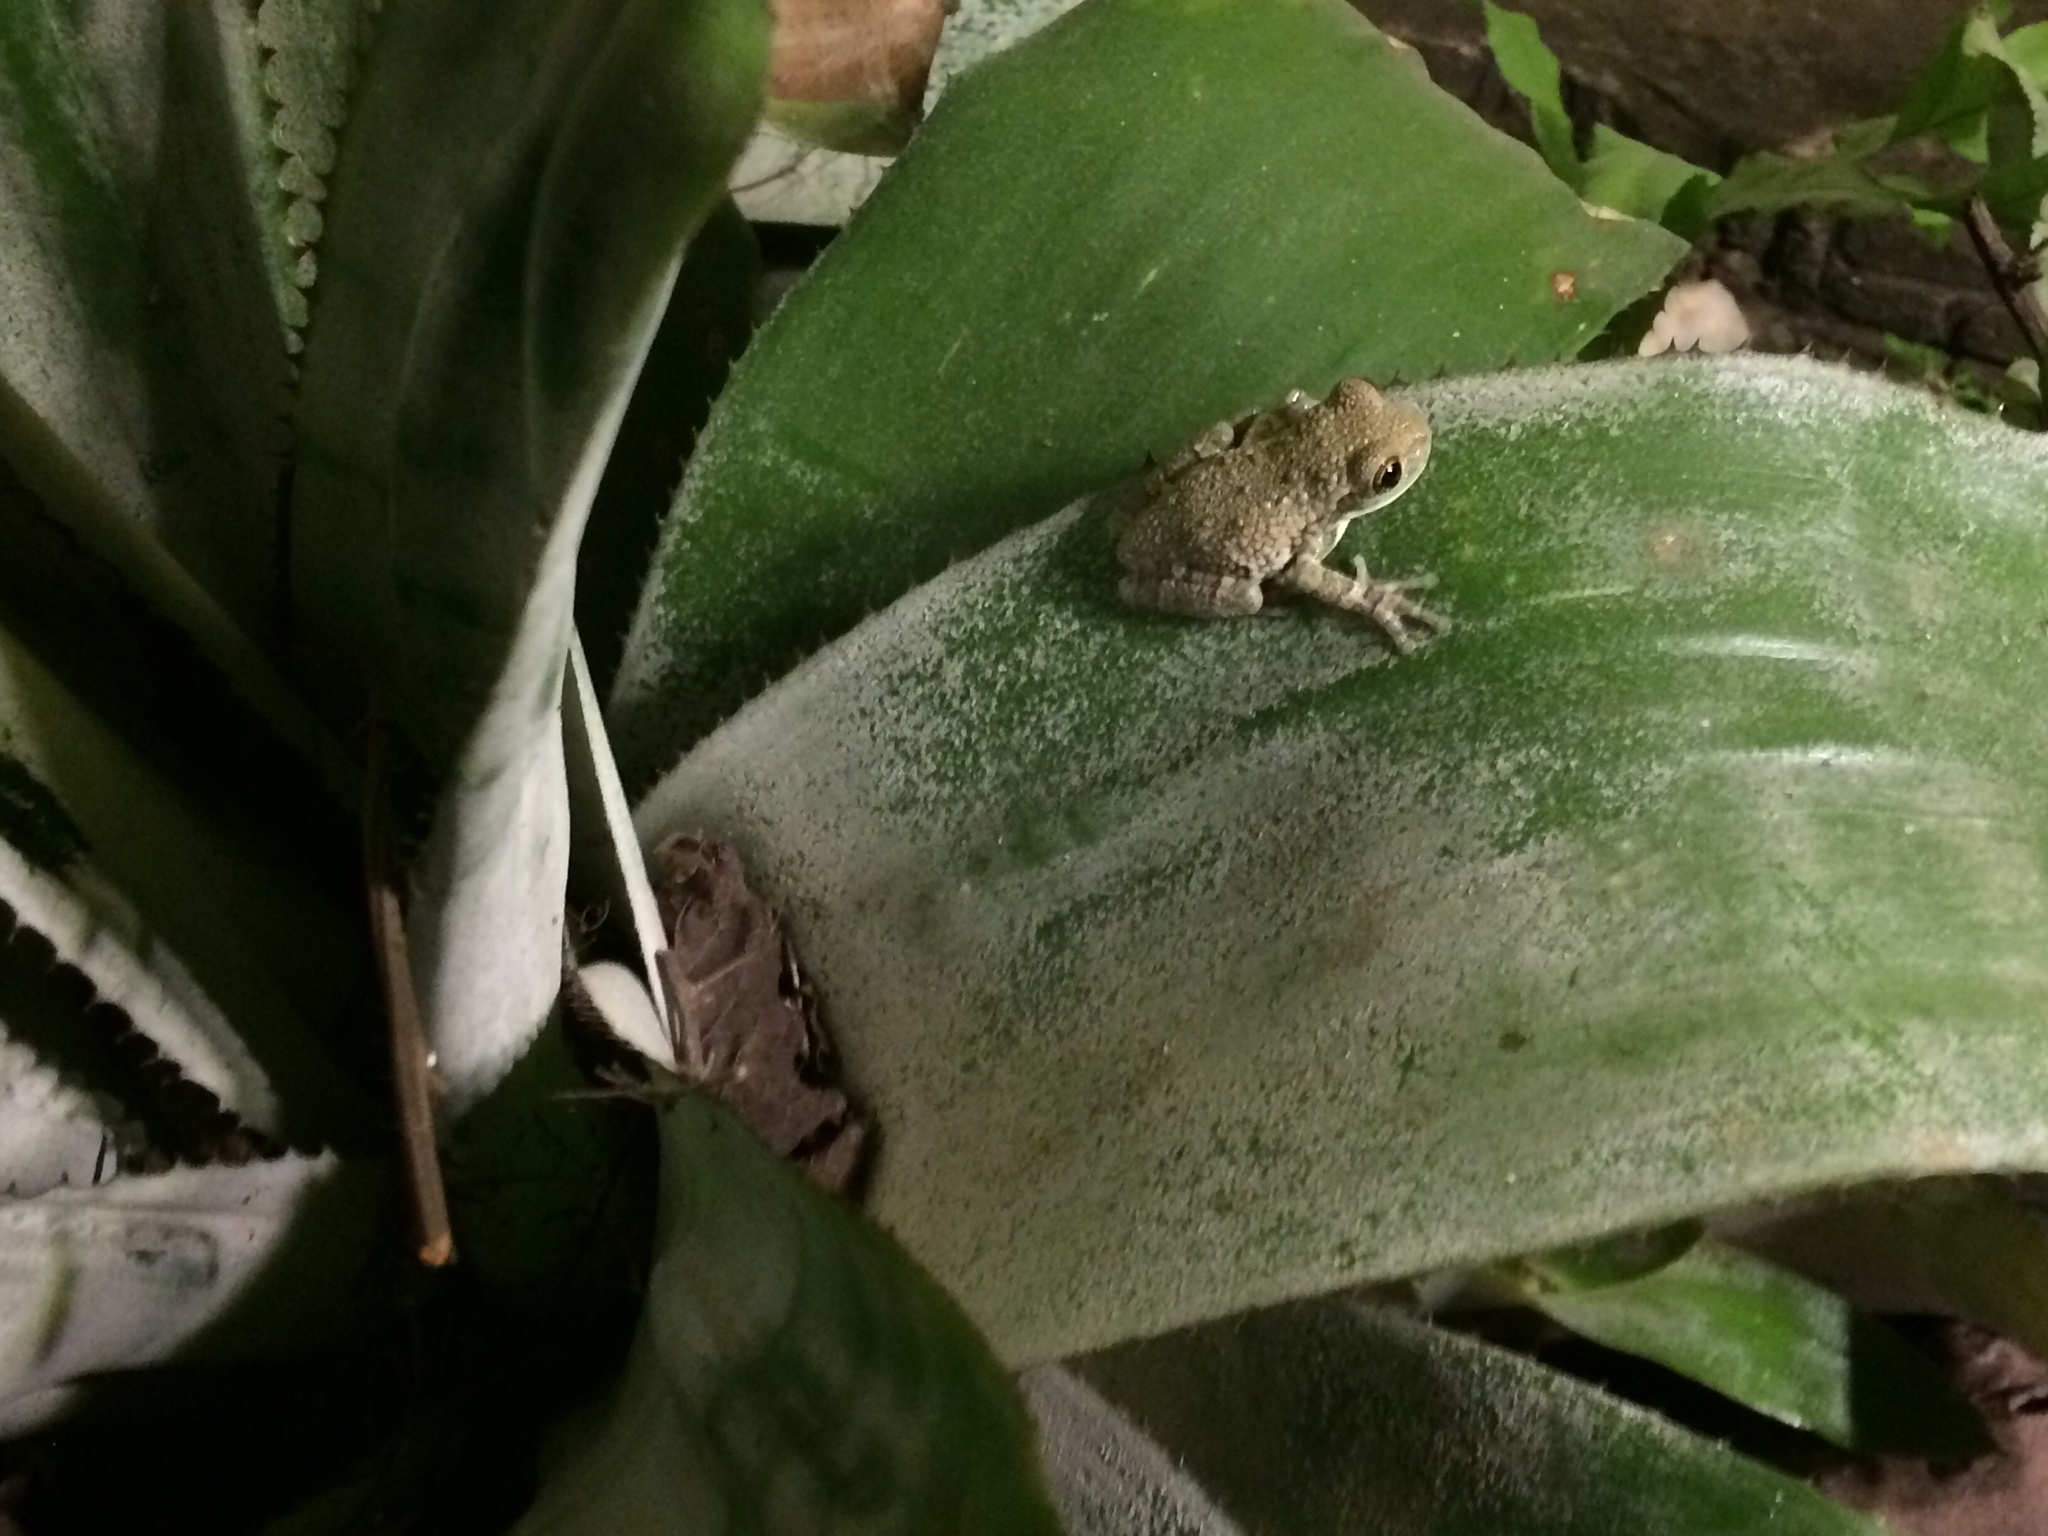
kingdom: Animalia
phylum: Chordata
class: Amphibia
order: Anura
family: Hylidae
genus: Trachycephalus
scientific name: Trachycephalus typhonius
